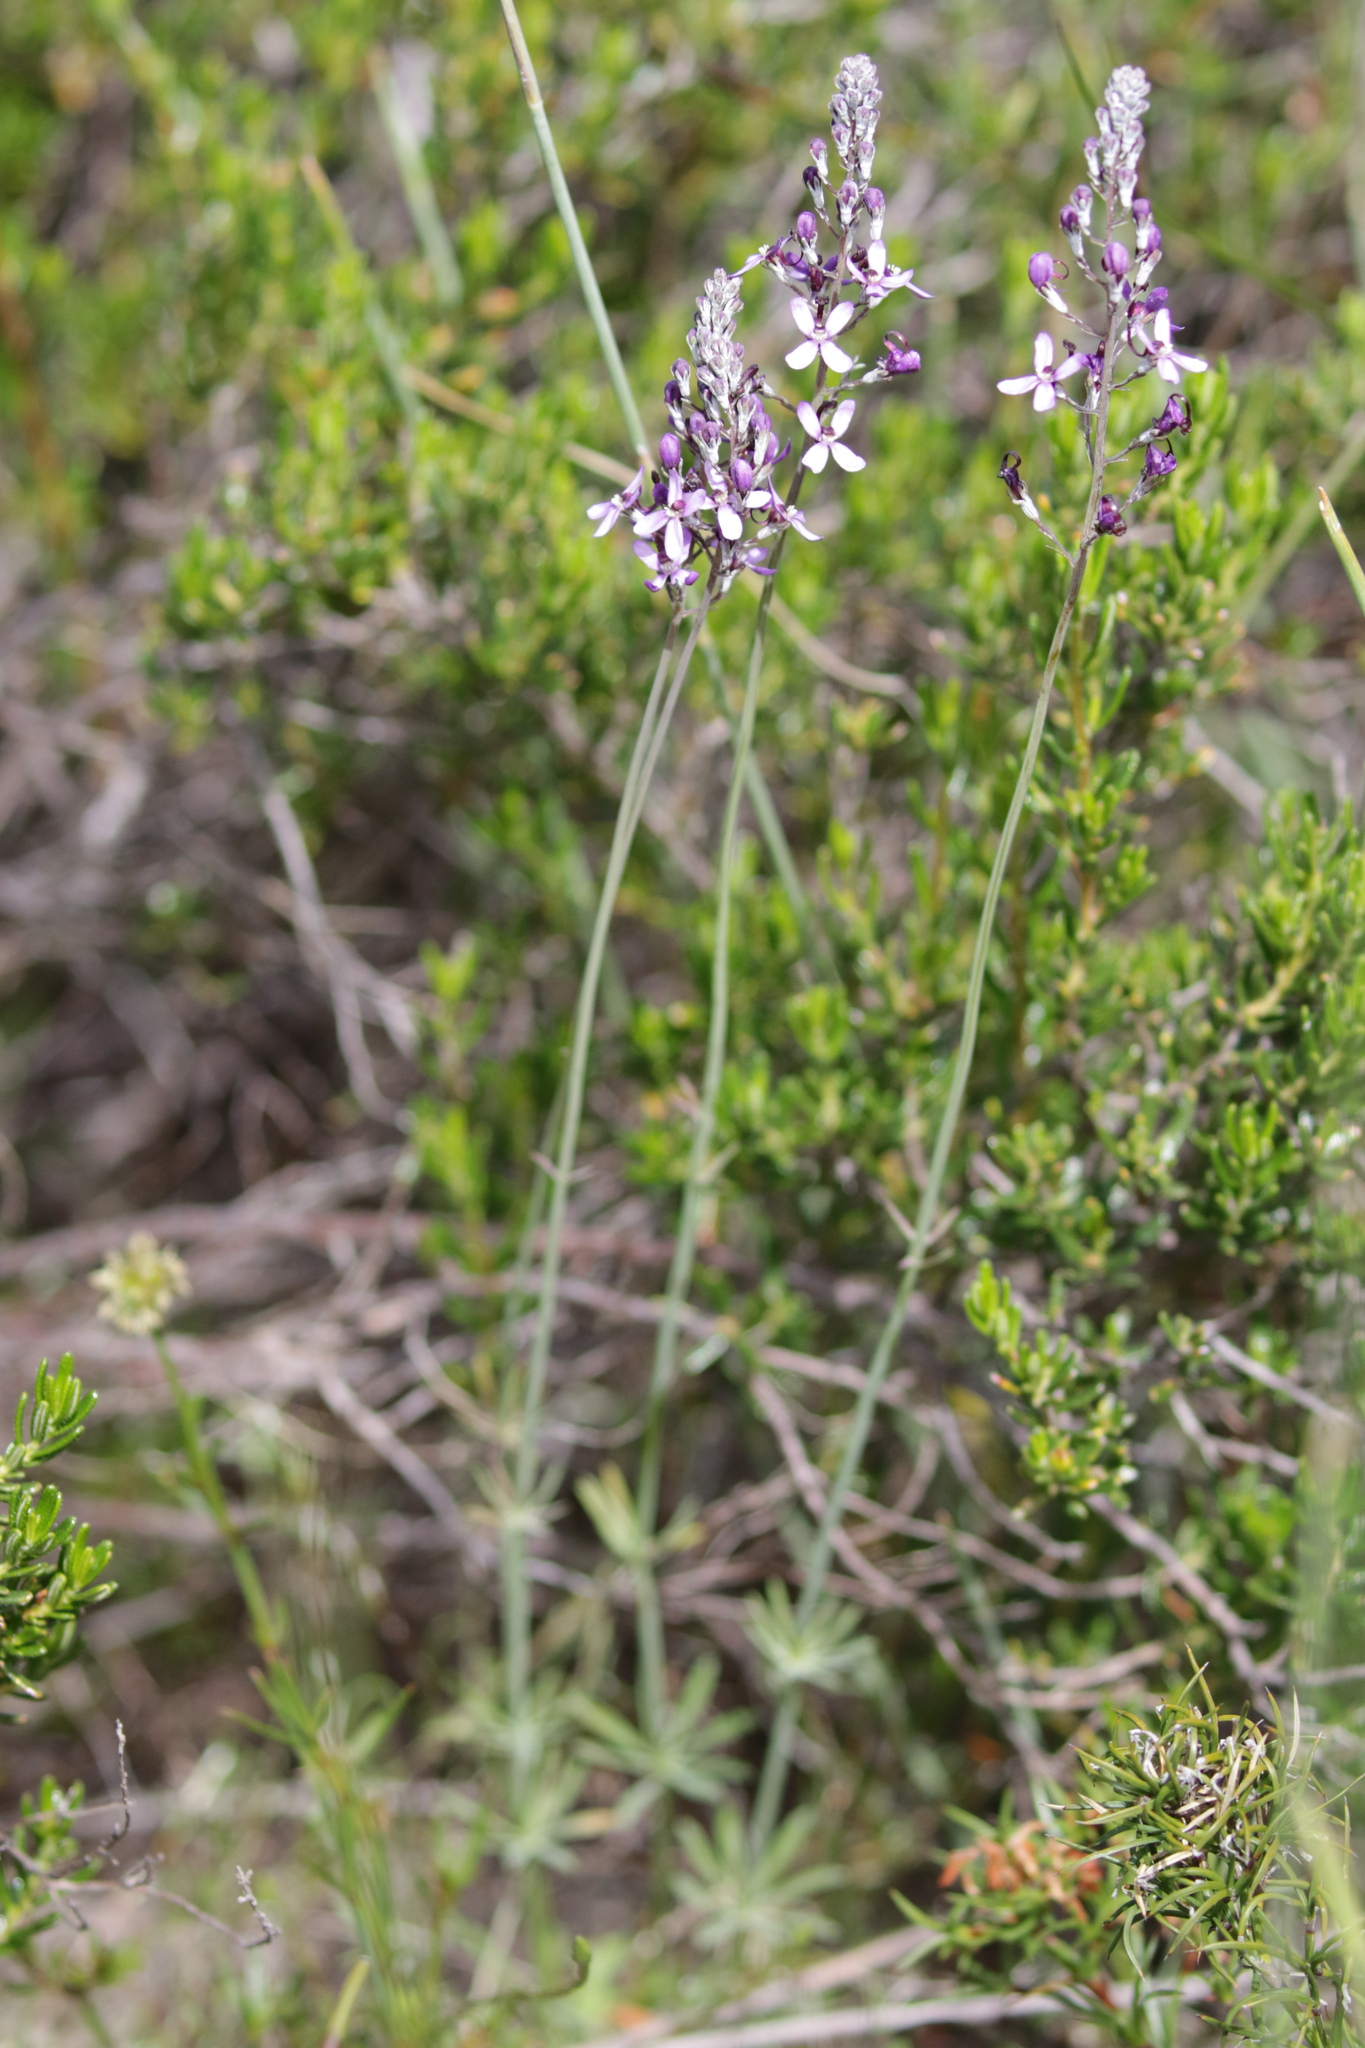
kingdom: Plantae
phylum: Tracheophyta
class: Magnoliopsida
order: Asterales
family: Stylidiaceae
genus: Stylidium
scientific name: Stylidium purpureum
